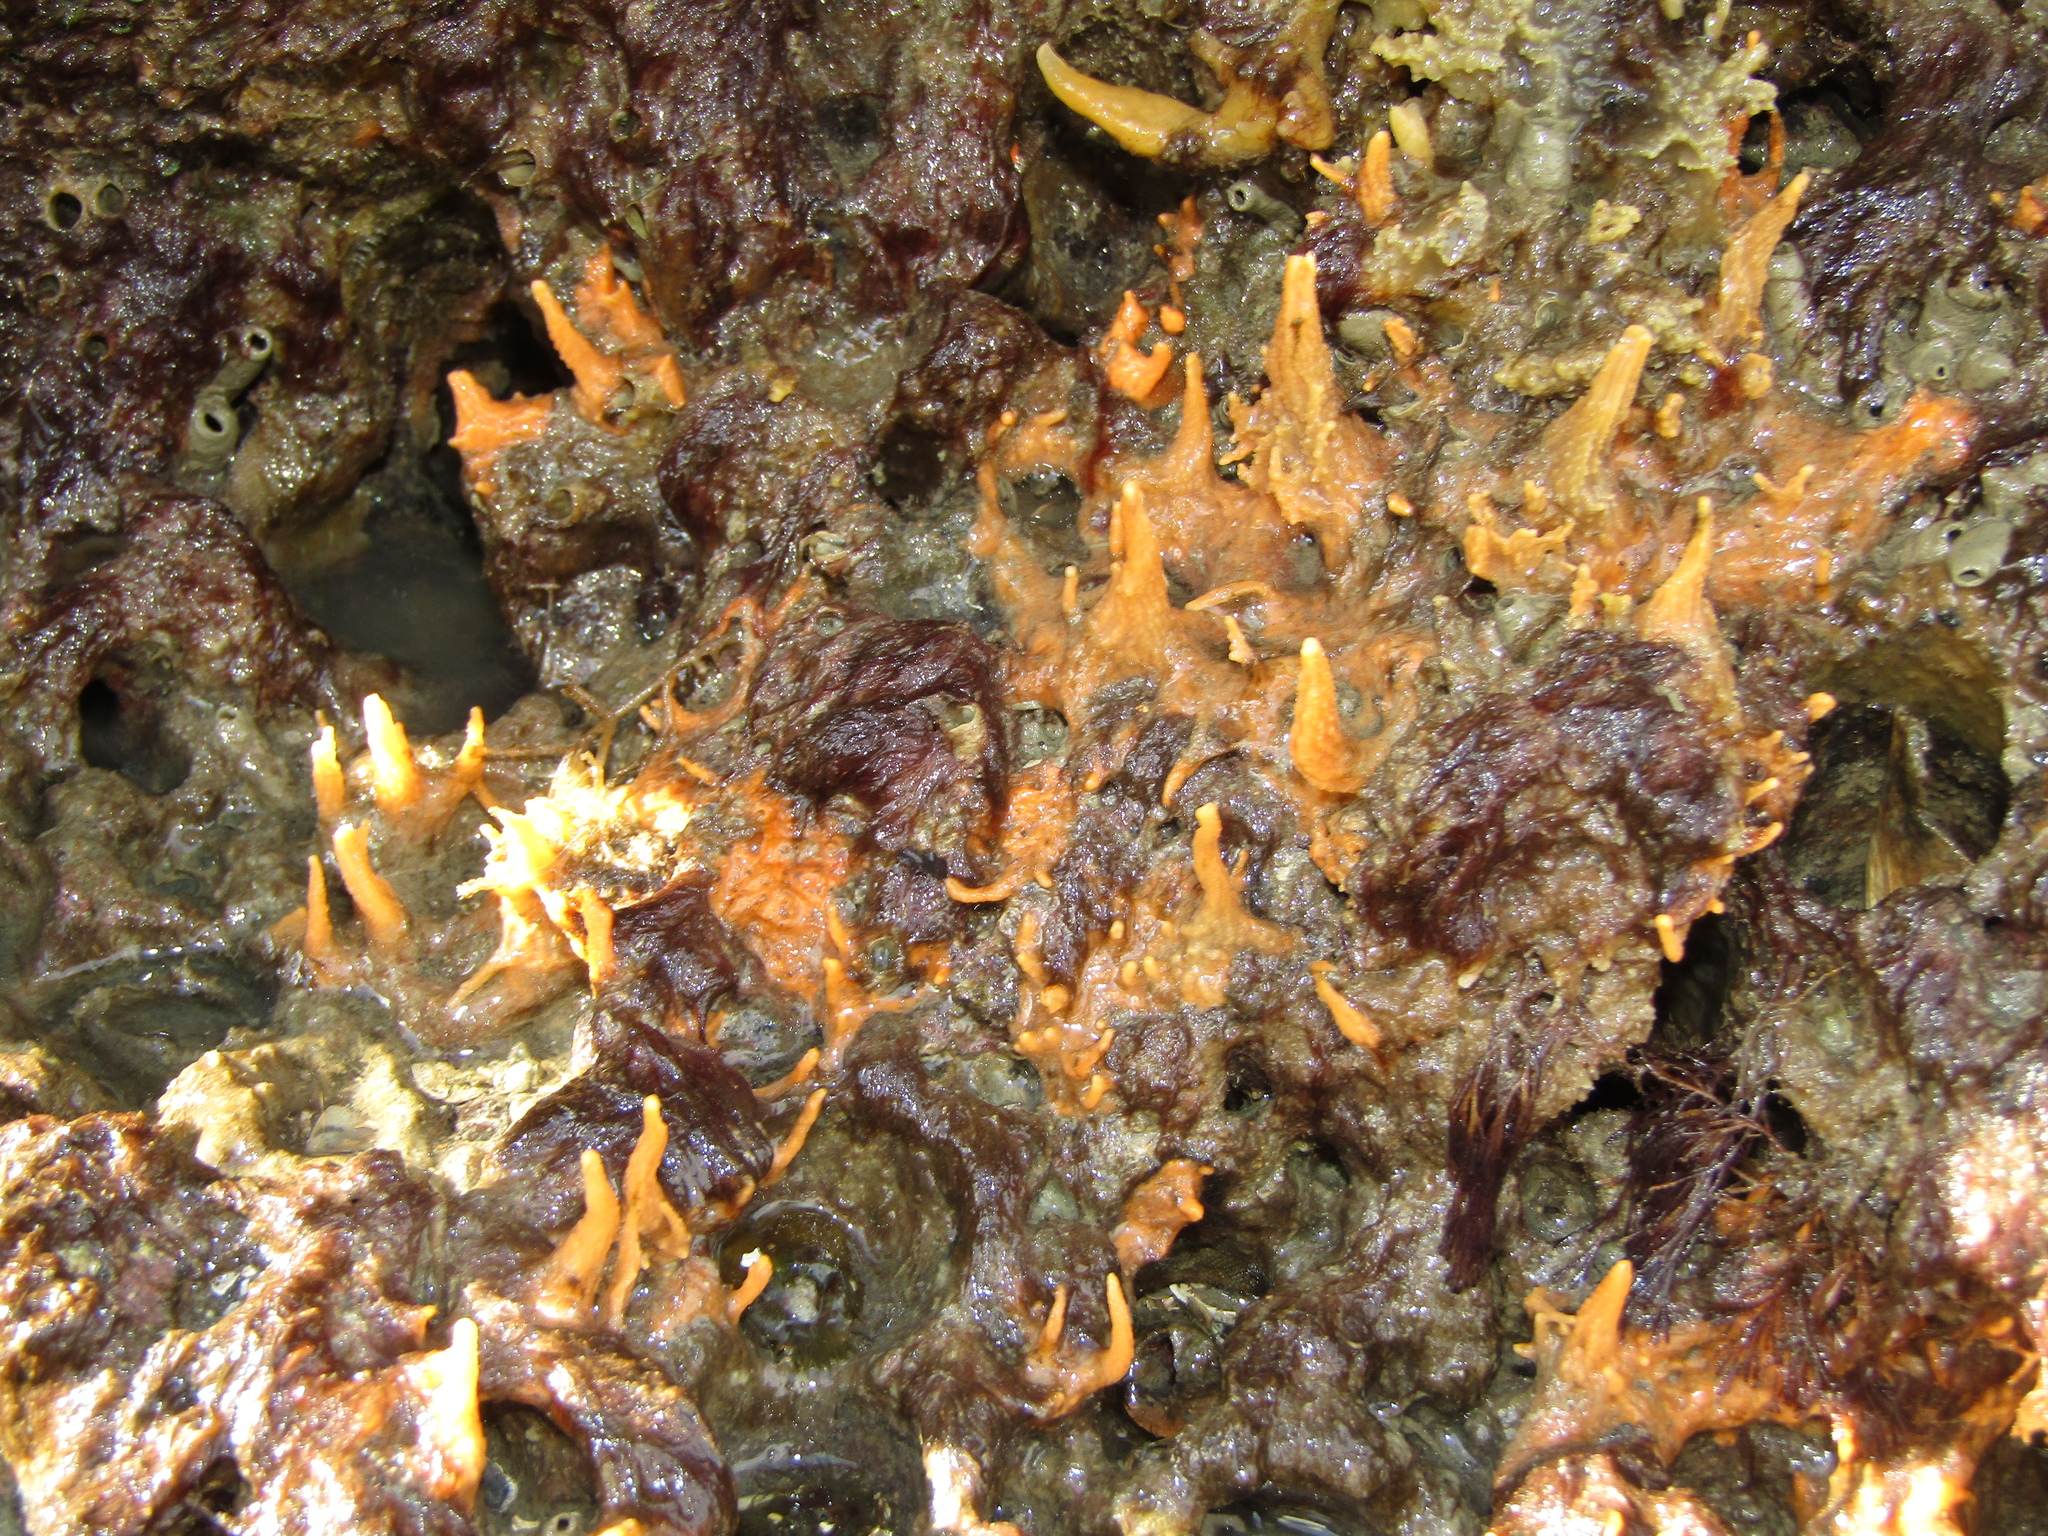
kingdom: Animalia
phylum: Porifera
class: Demospongiae
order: Suberitida
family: Halichondriidae
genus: Ciocalypta
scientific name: Ciocalypta polymastia
